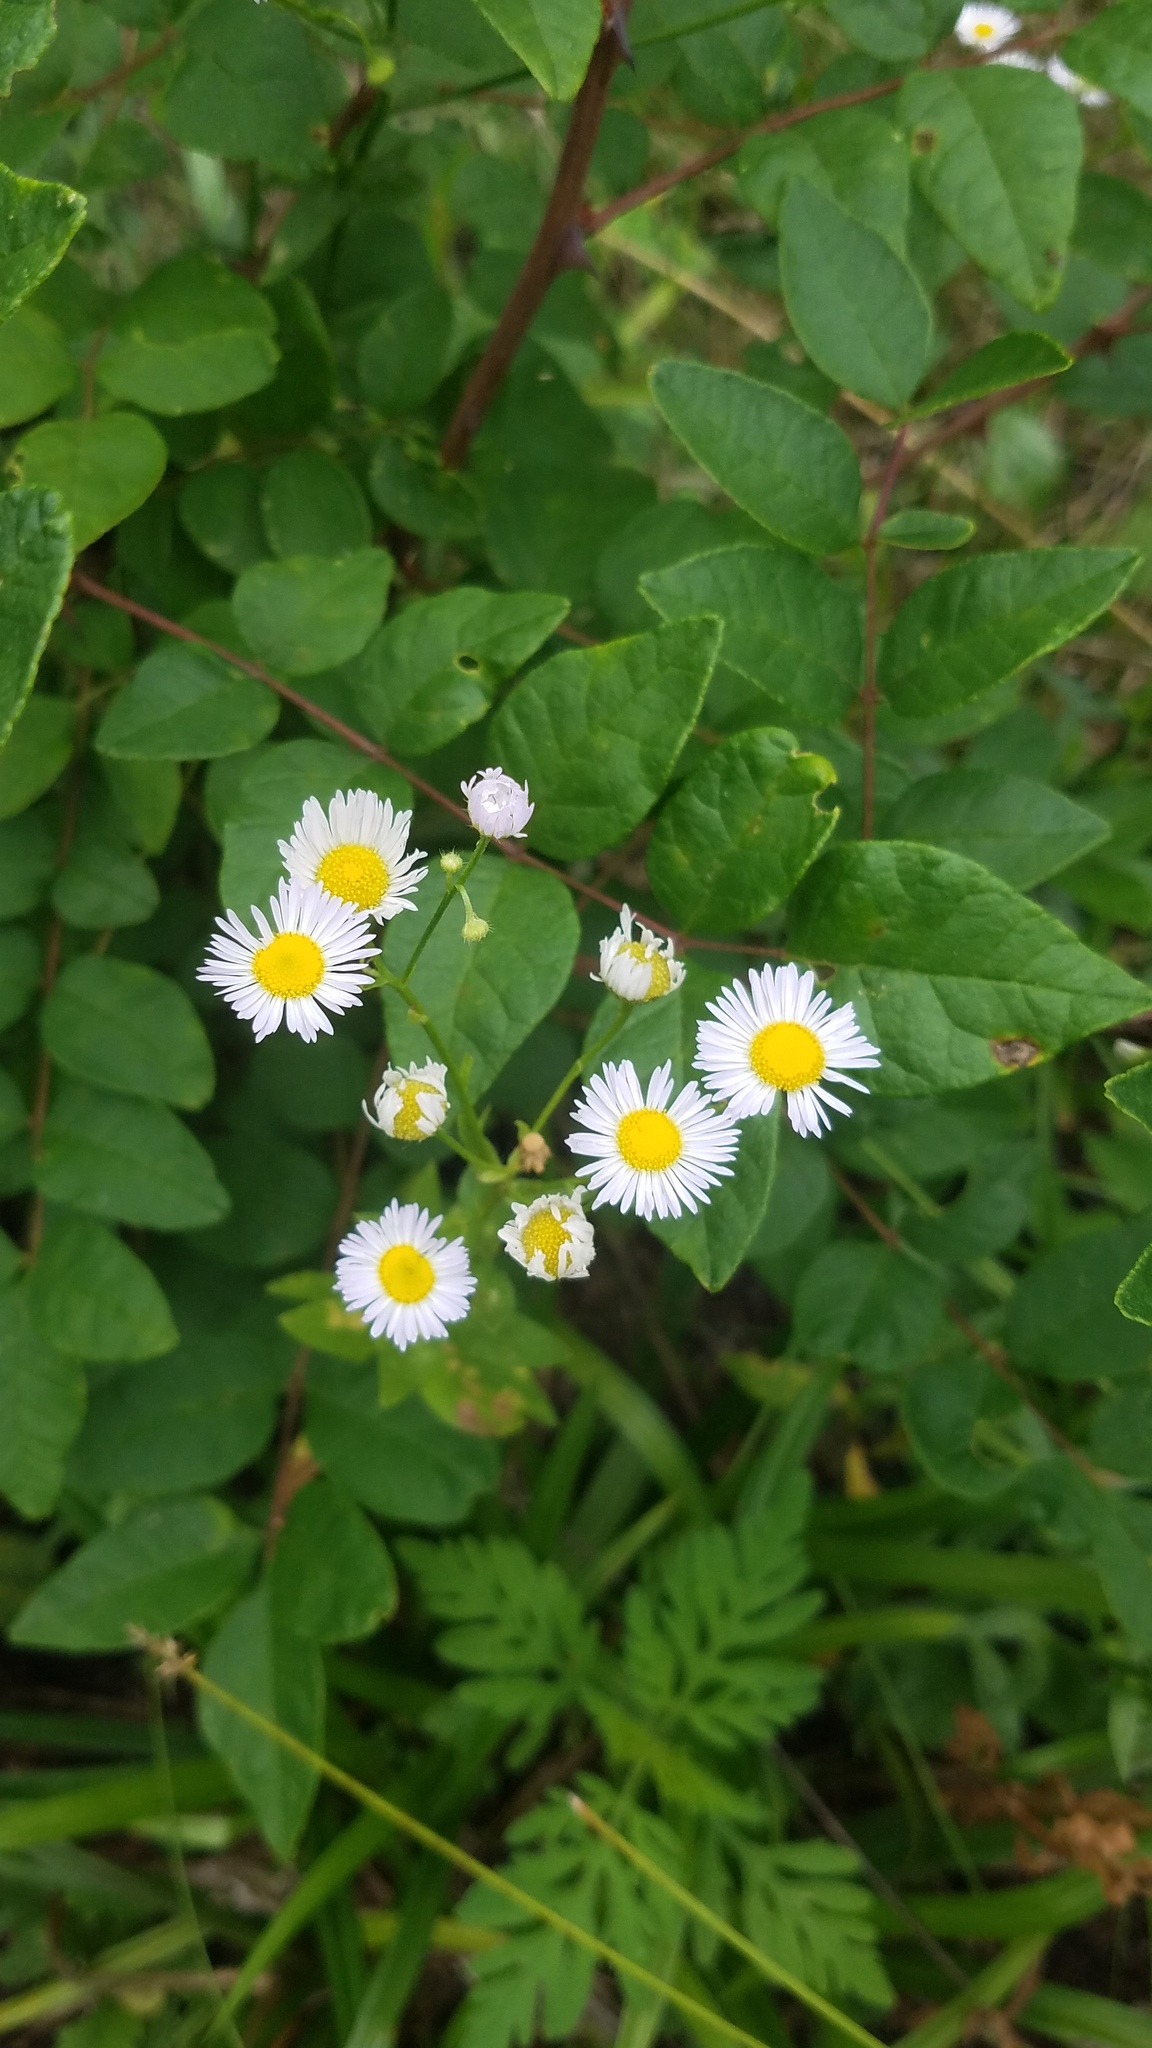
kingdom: Plantae
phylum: Tracheophyta
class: Magnoliopsida
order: Asterales
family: Asteraceae
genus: Erigeron
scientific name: Erigeron strigosus
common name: Common eastern fleabane
